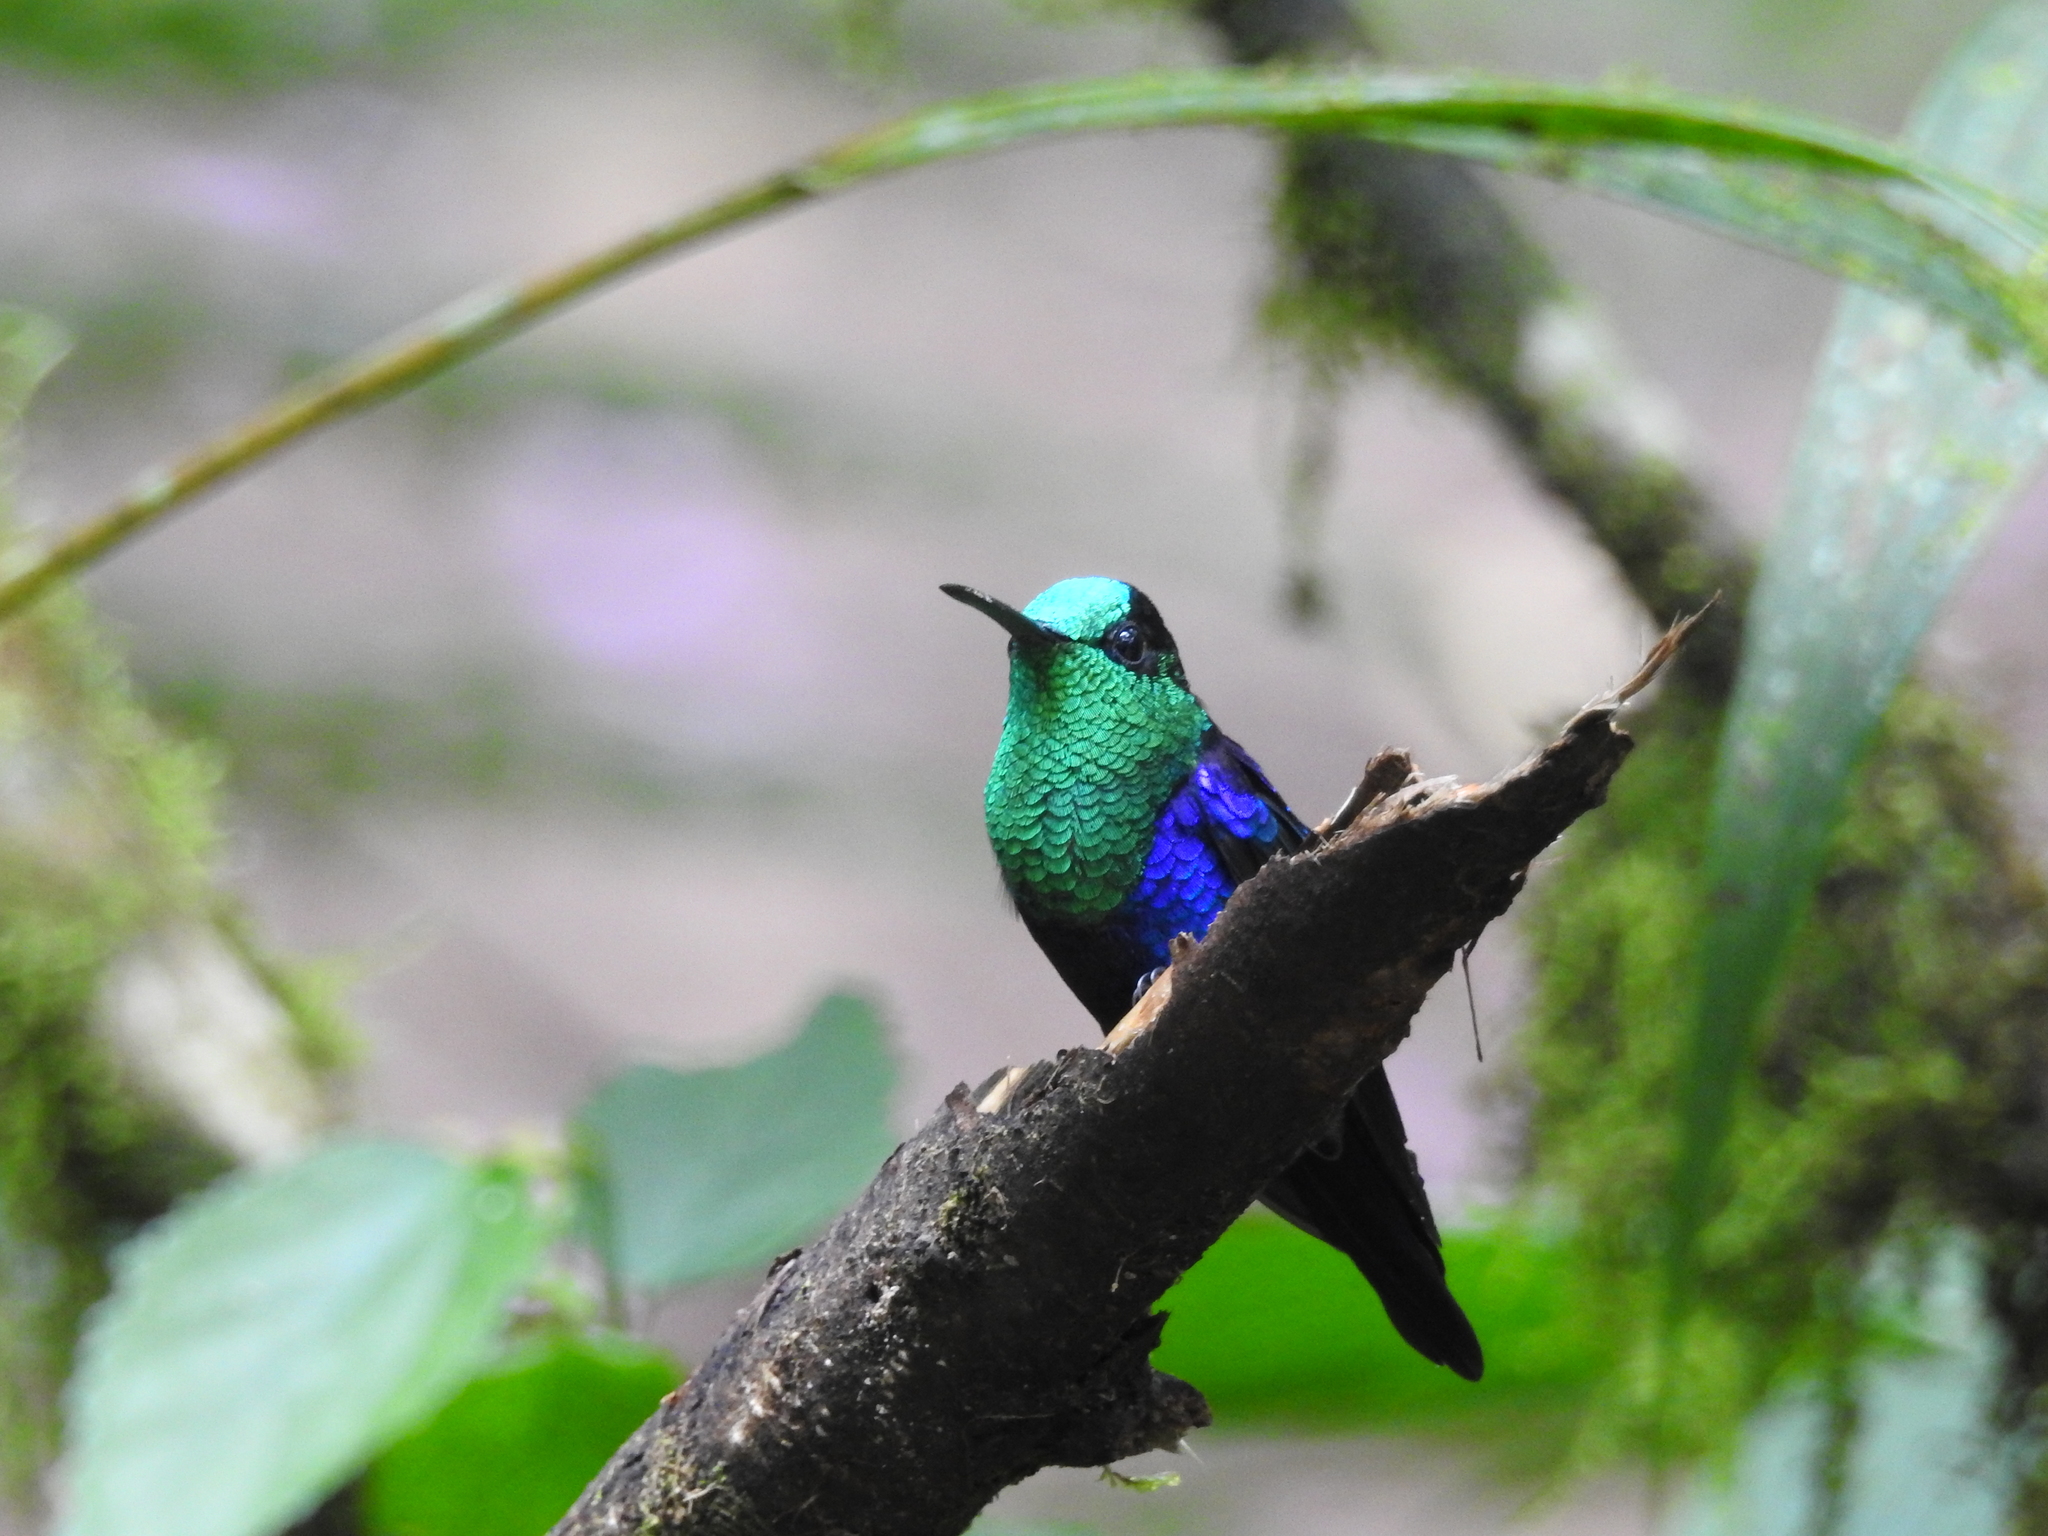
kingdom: Animalia
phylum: Chordata
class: Aves
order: Apodiformes
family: Trochilidae
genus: Thalurania
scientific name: Thalurania colombica
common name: Crowned woodnymph
